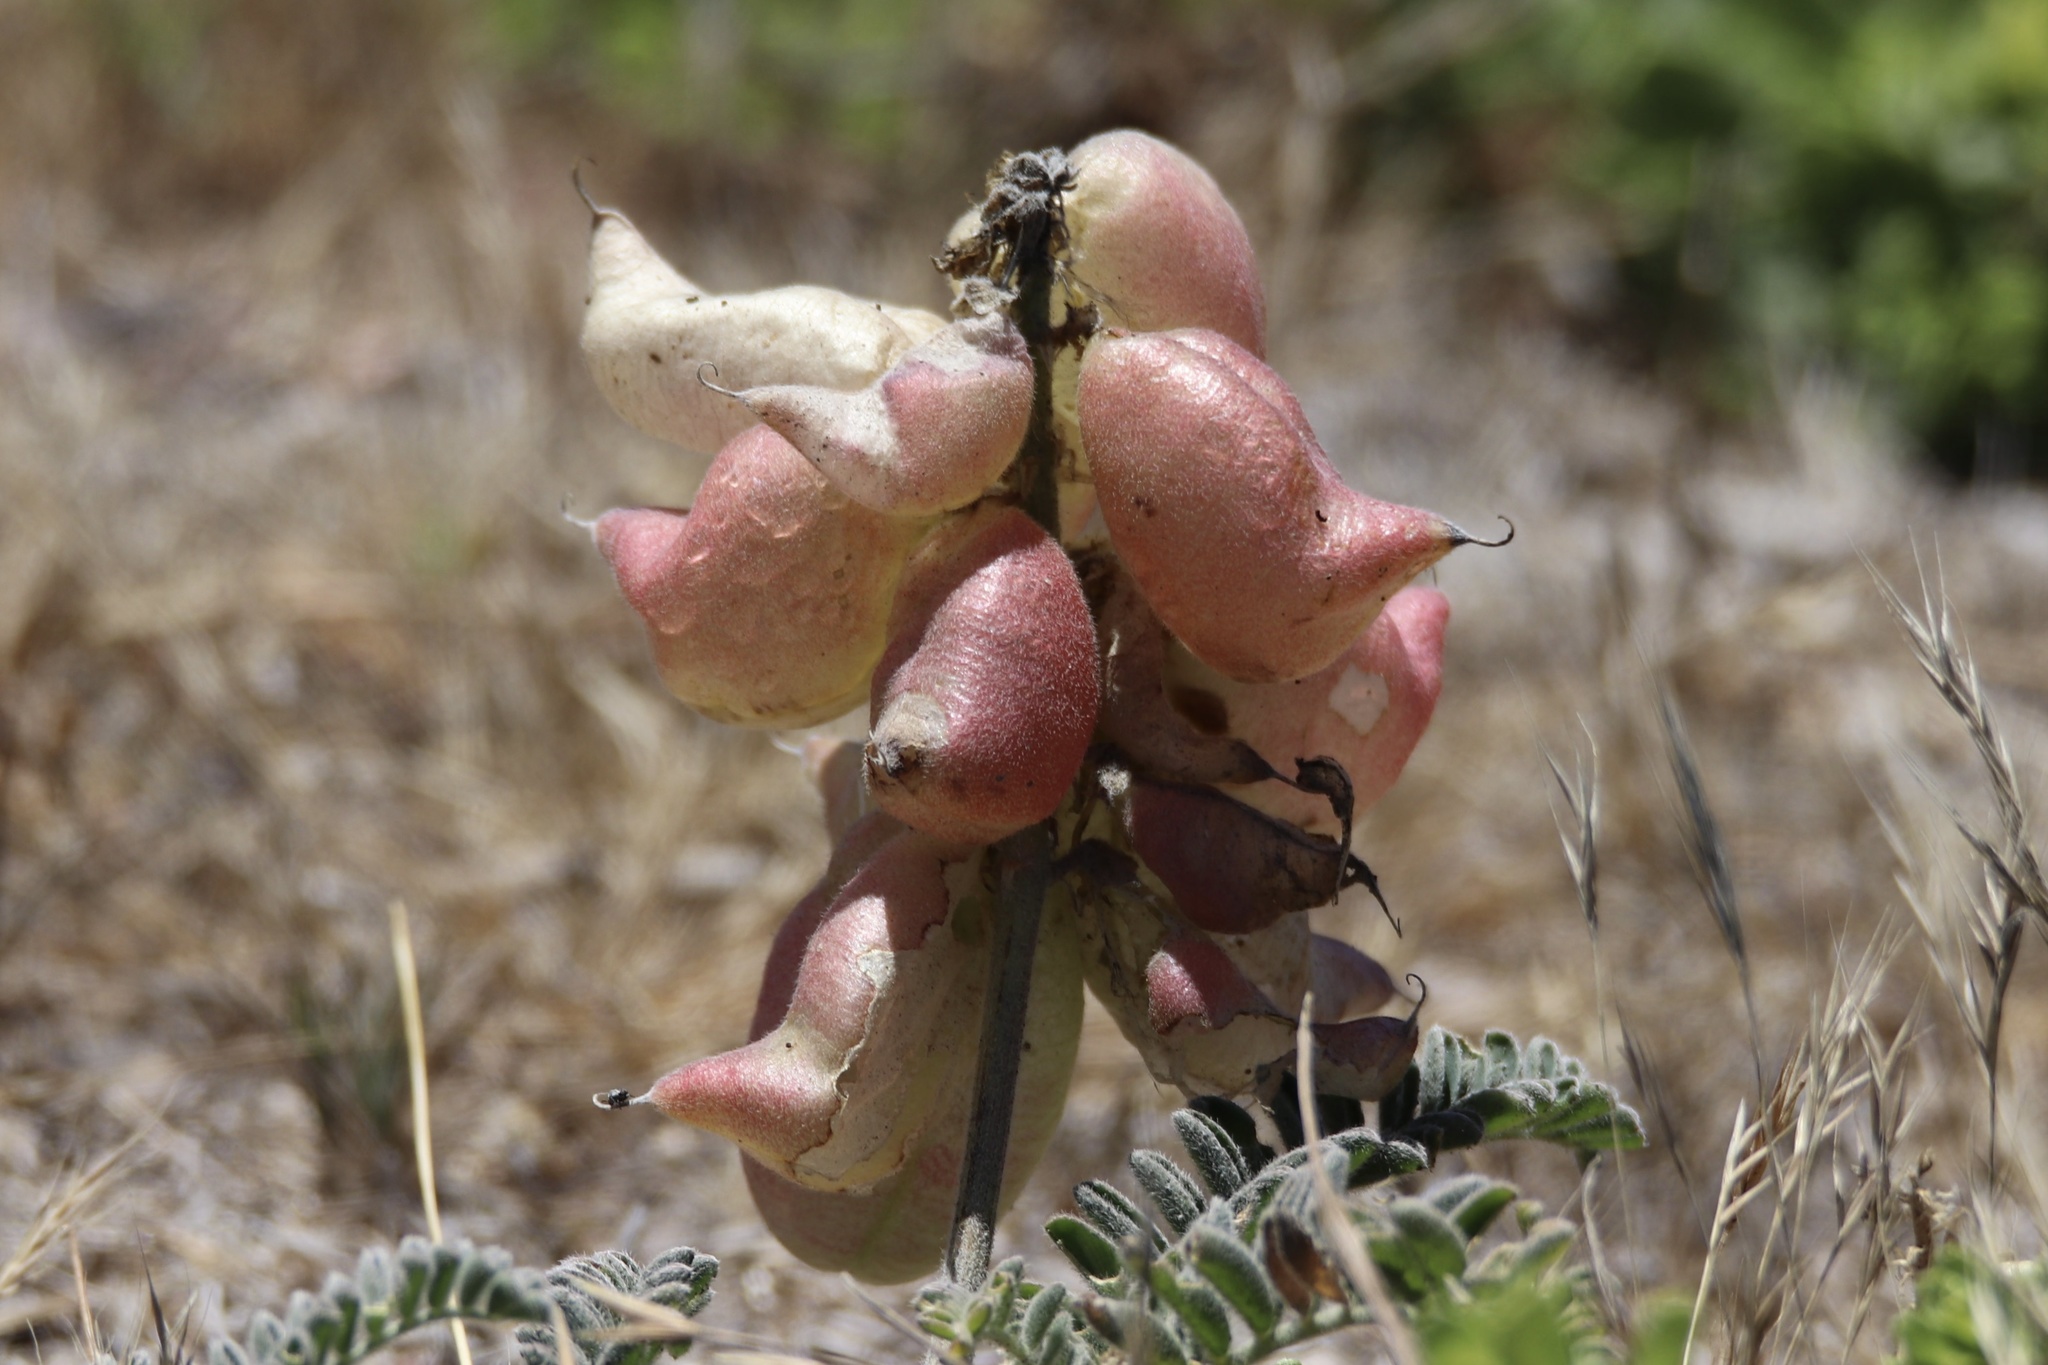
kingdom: Plantae
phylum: Tracheophyta
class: Magnoliopsida
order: Fabales
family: Fabaceae
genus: Astragalus
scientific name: Astragalus nuttallii
